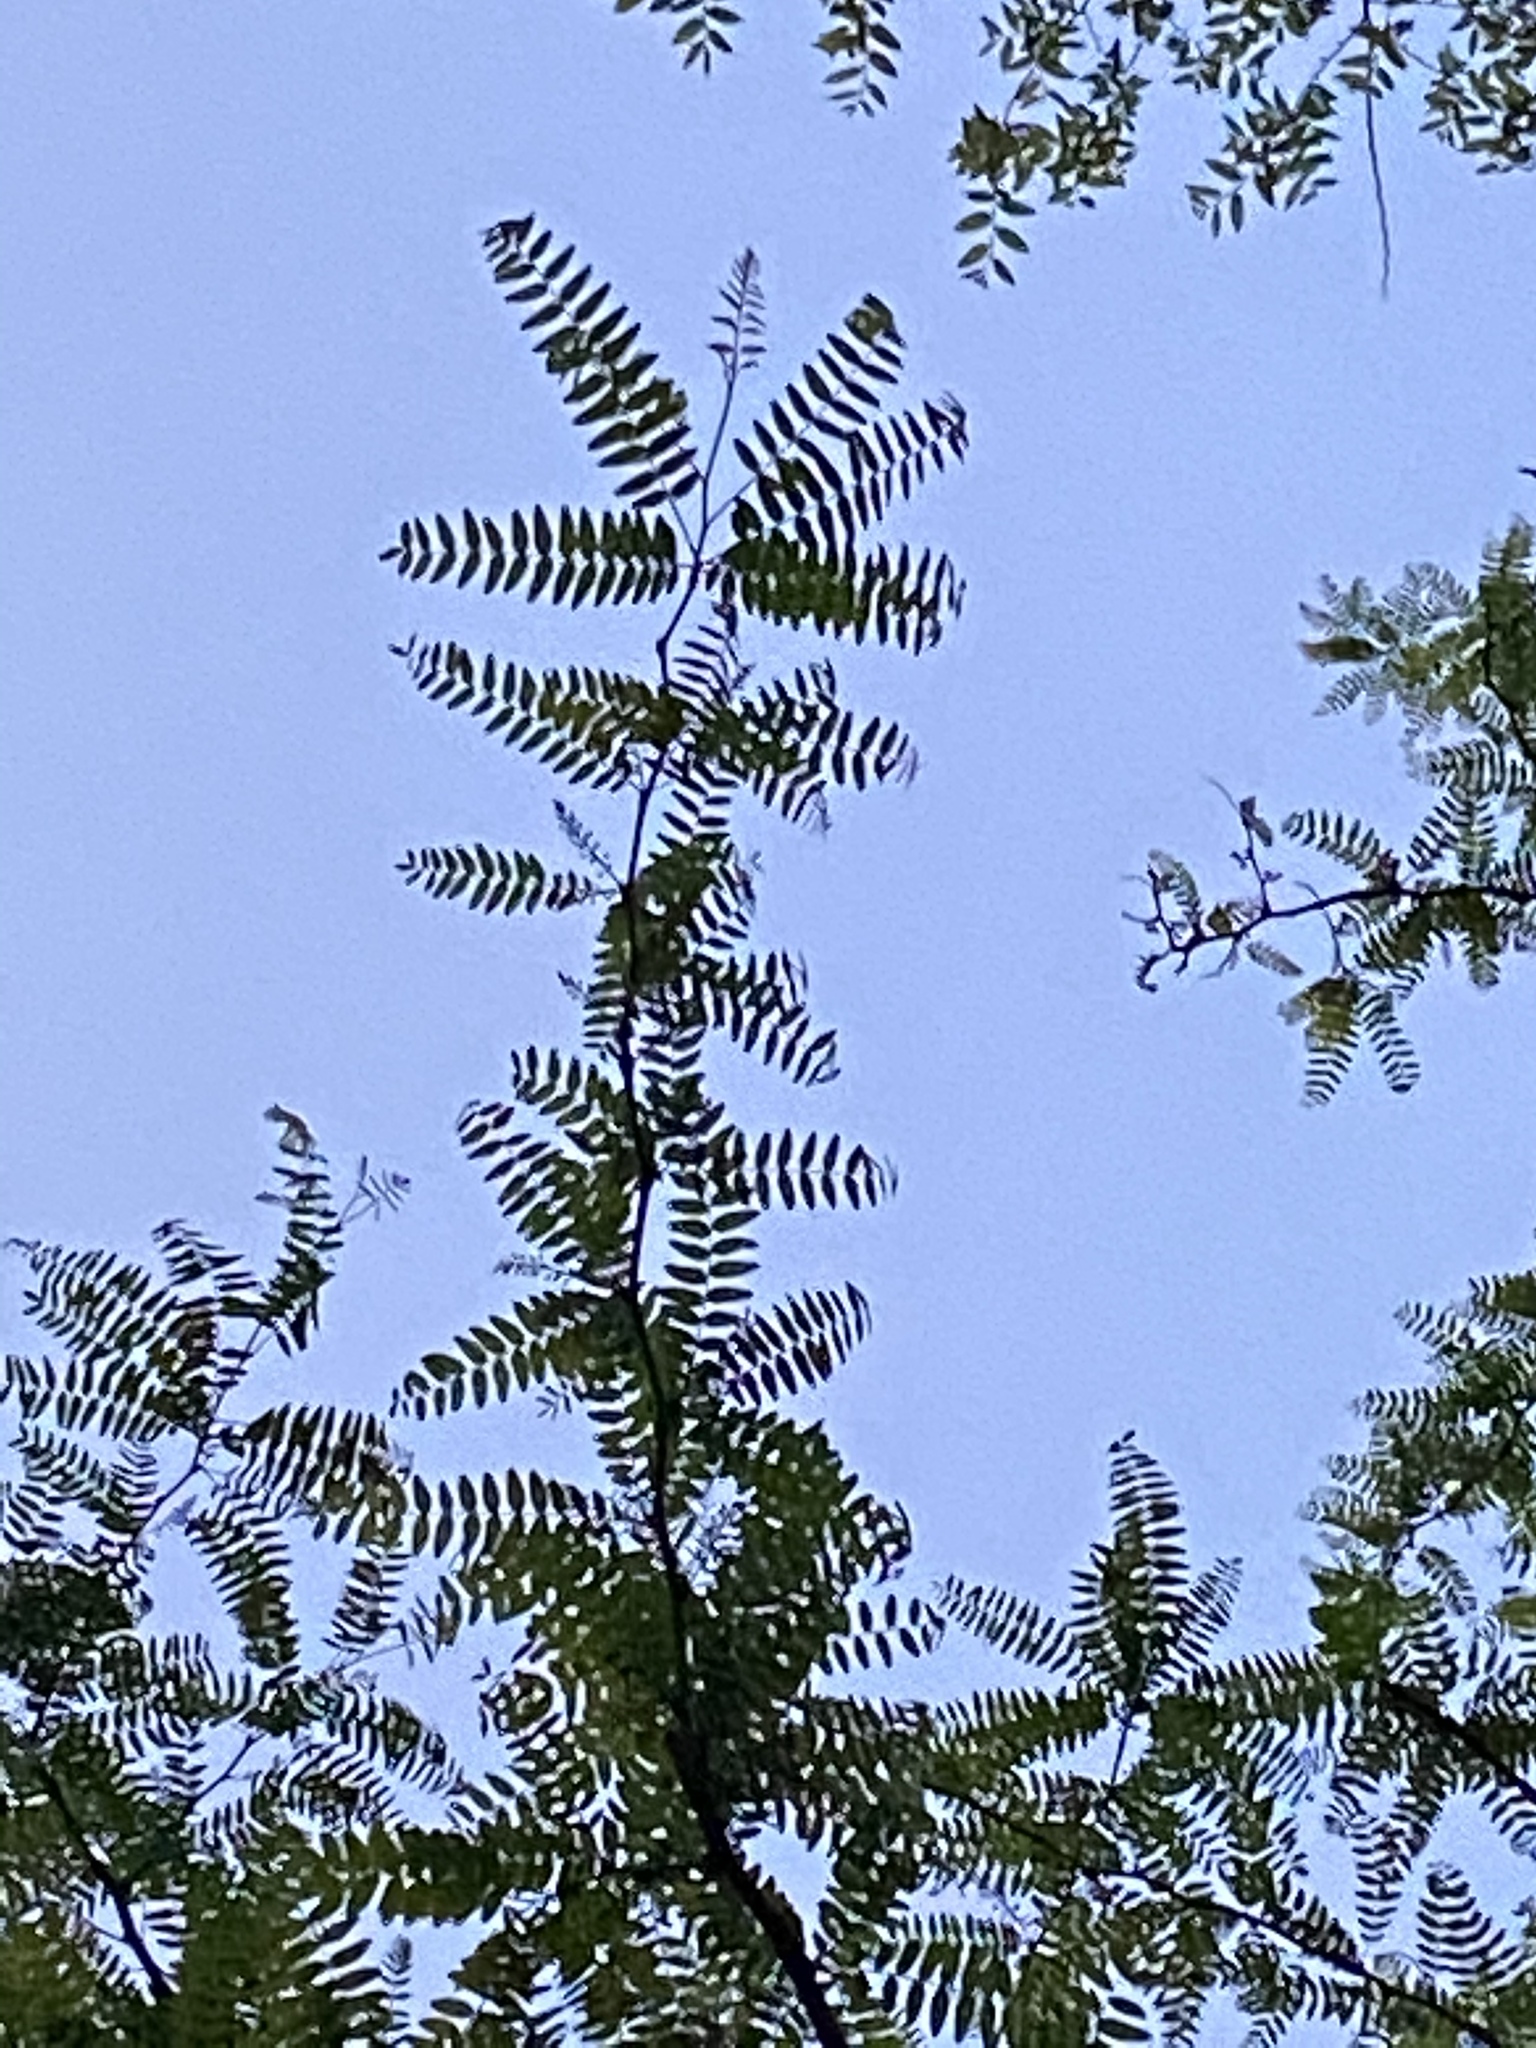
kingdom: Plantae
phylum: Tracheophyta
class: Magnoliopsida
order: Fabales
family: Fabaceae
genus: Gleditsia
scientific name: Gleditsia triacanthos
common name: Common honeylocust
